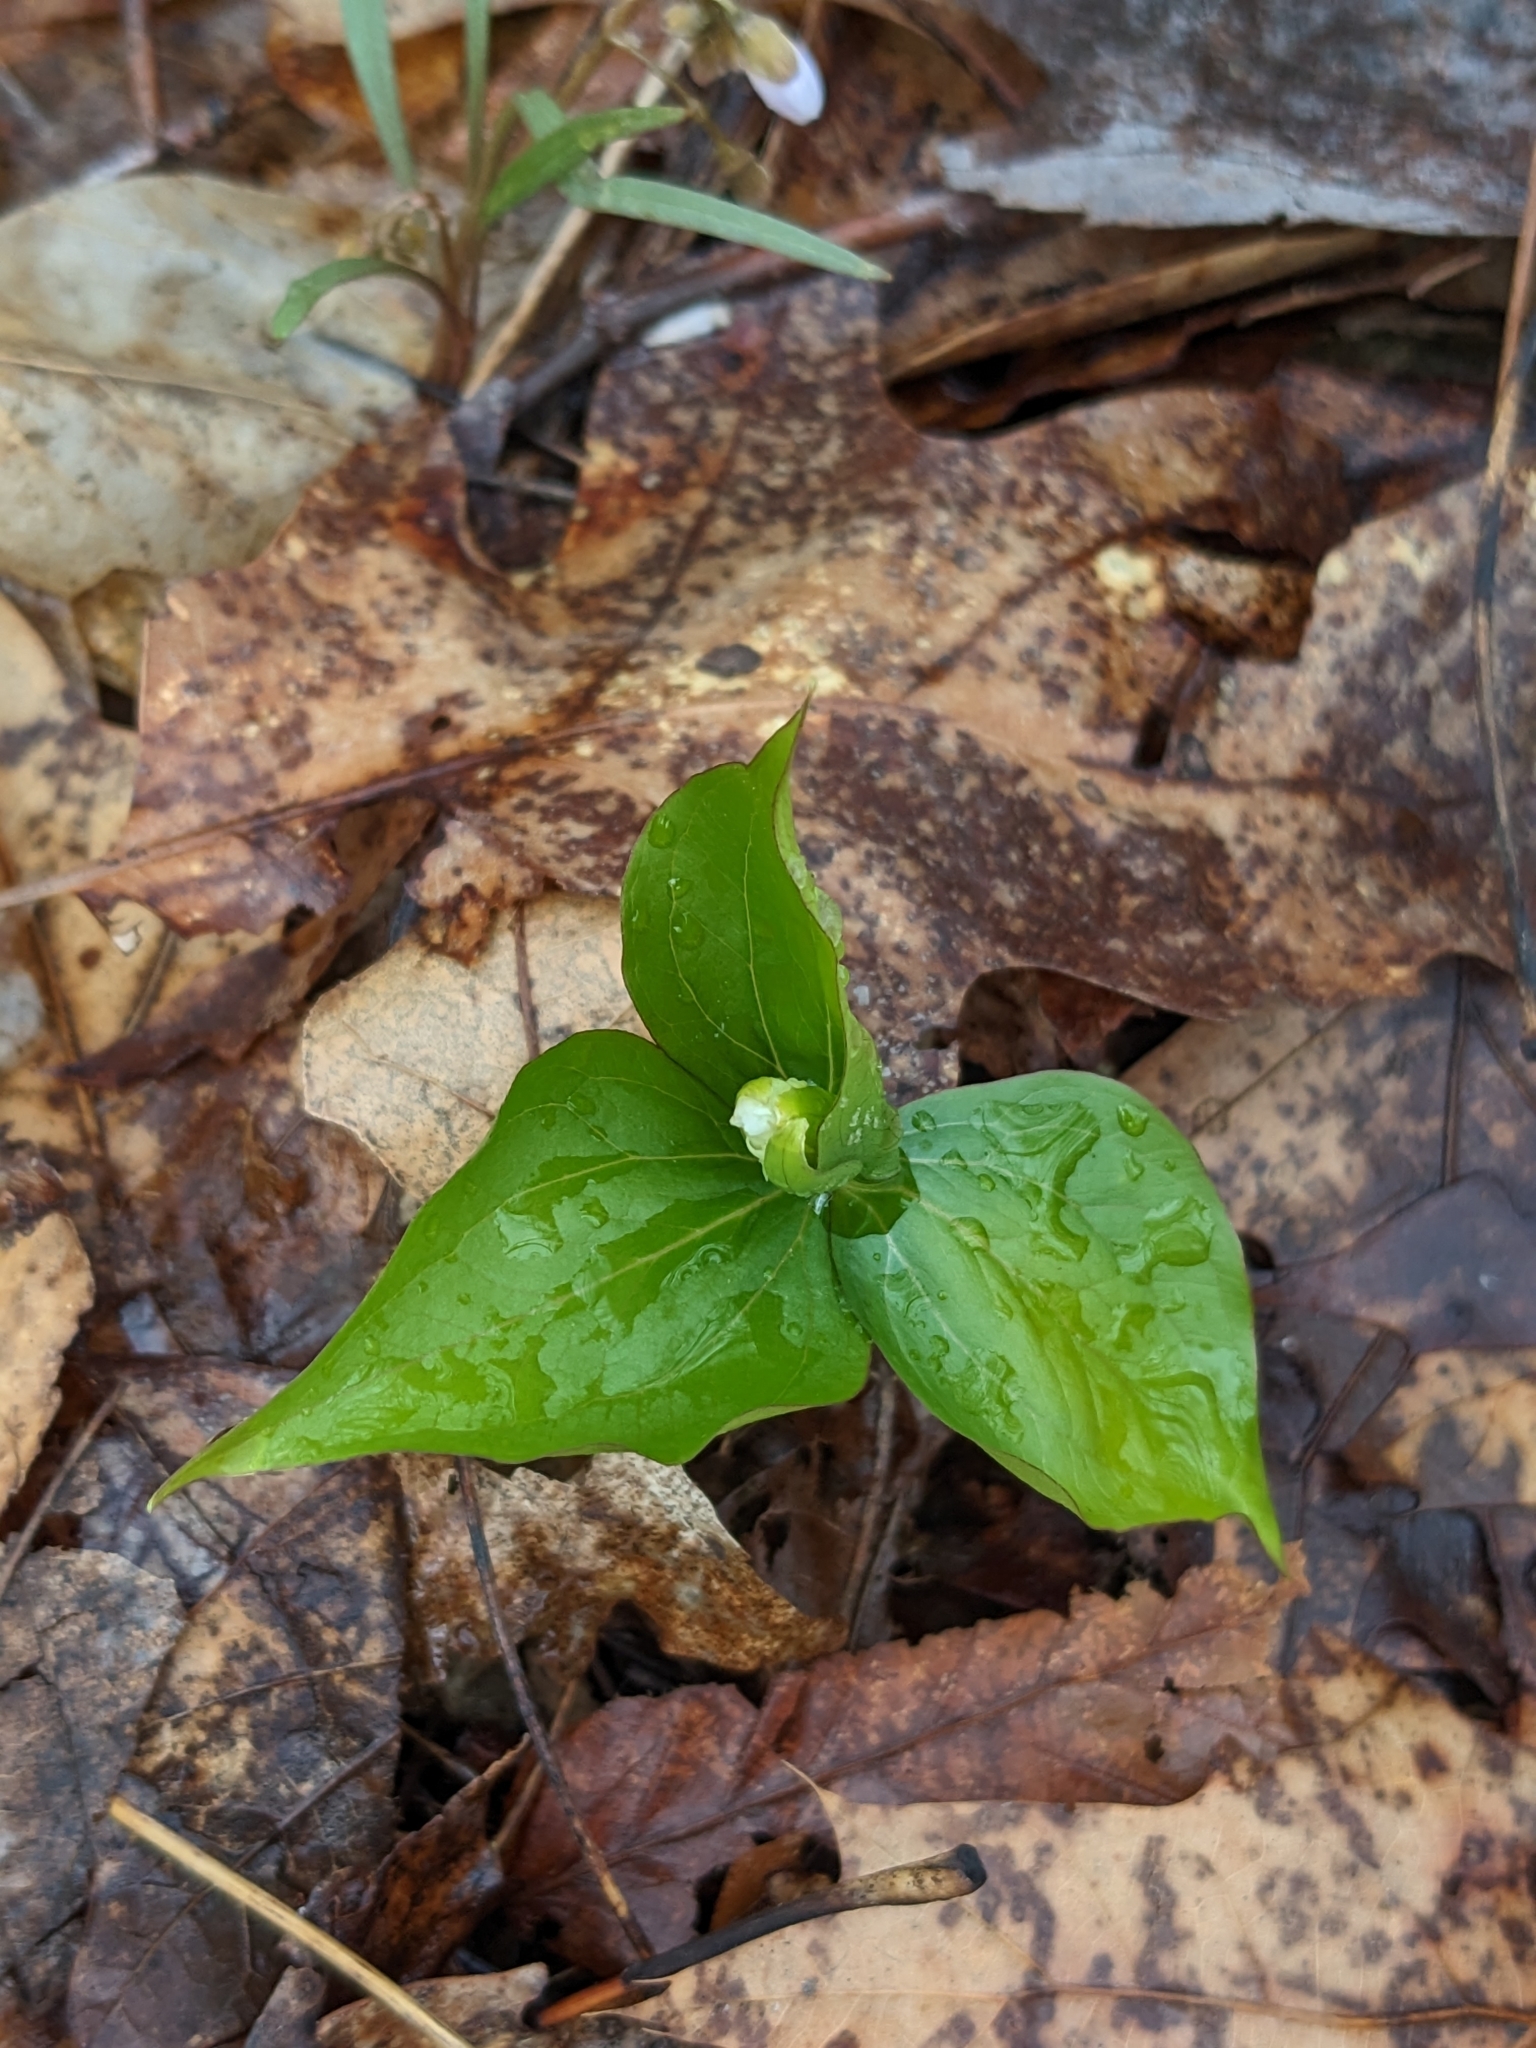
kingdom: Plantae
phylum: Tracheophyta
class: Liliopsida
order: Liliales
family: Melanthiaceae
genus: Trillium
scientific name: Trillium grandiflorum
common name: Great white trillium
